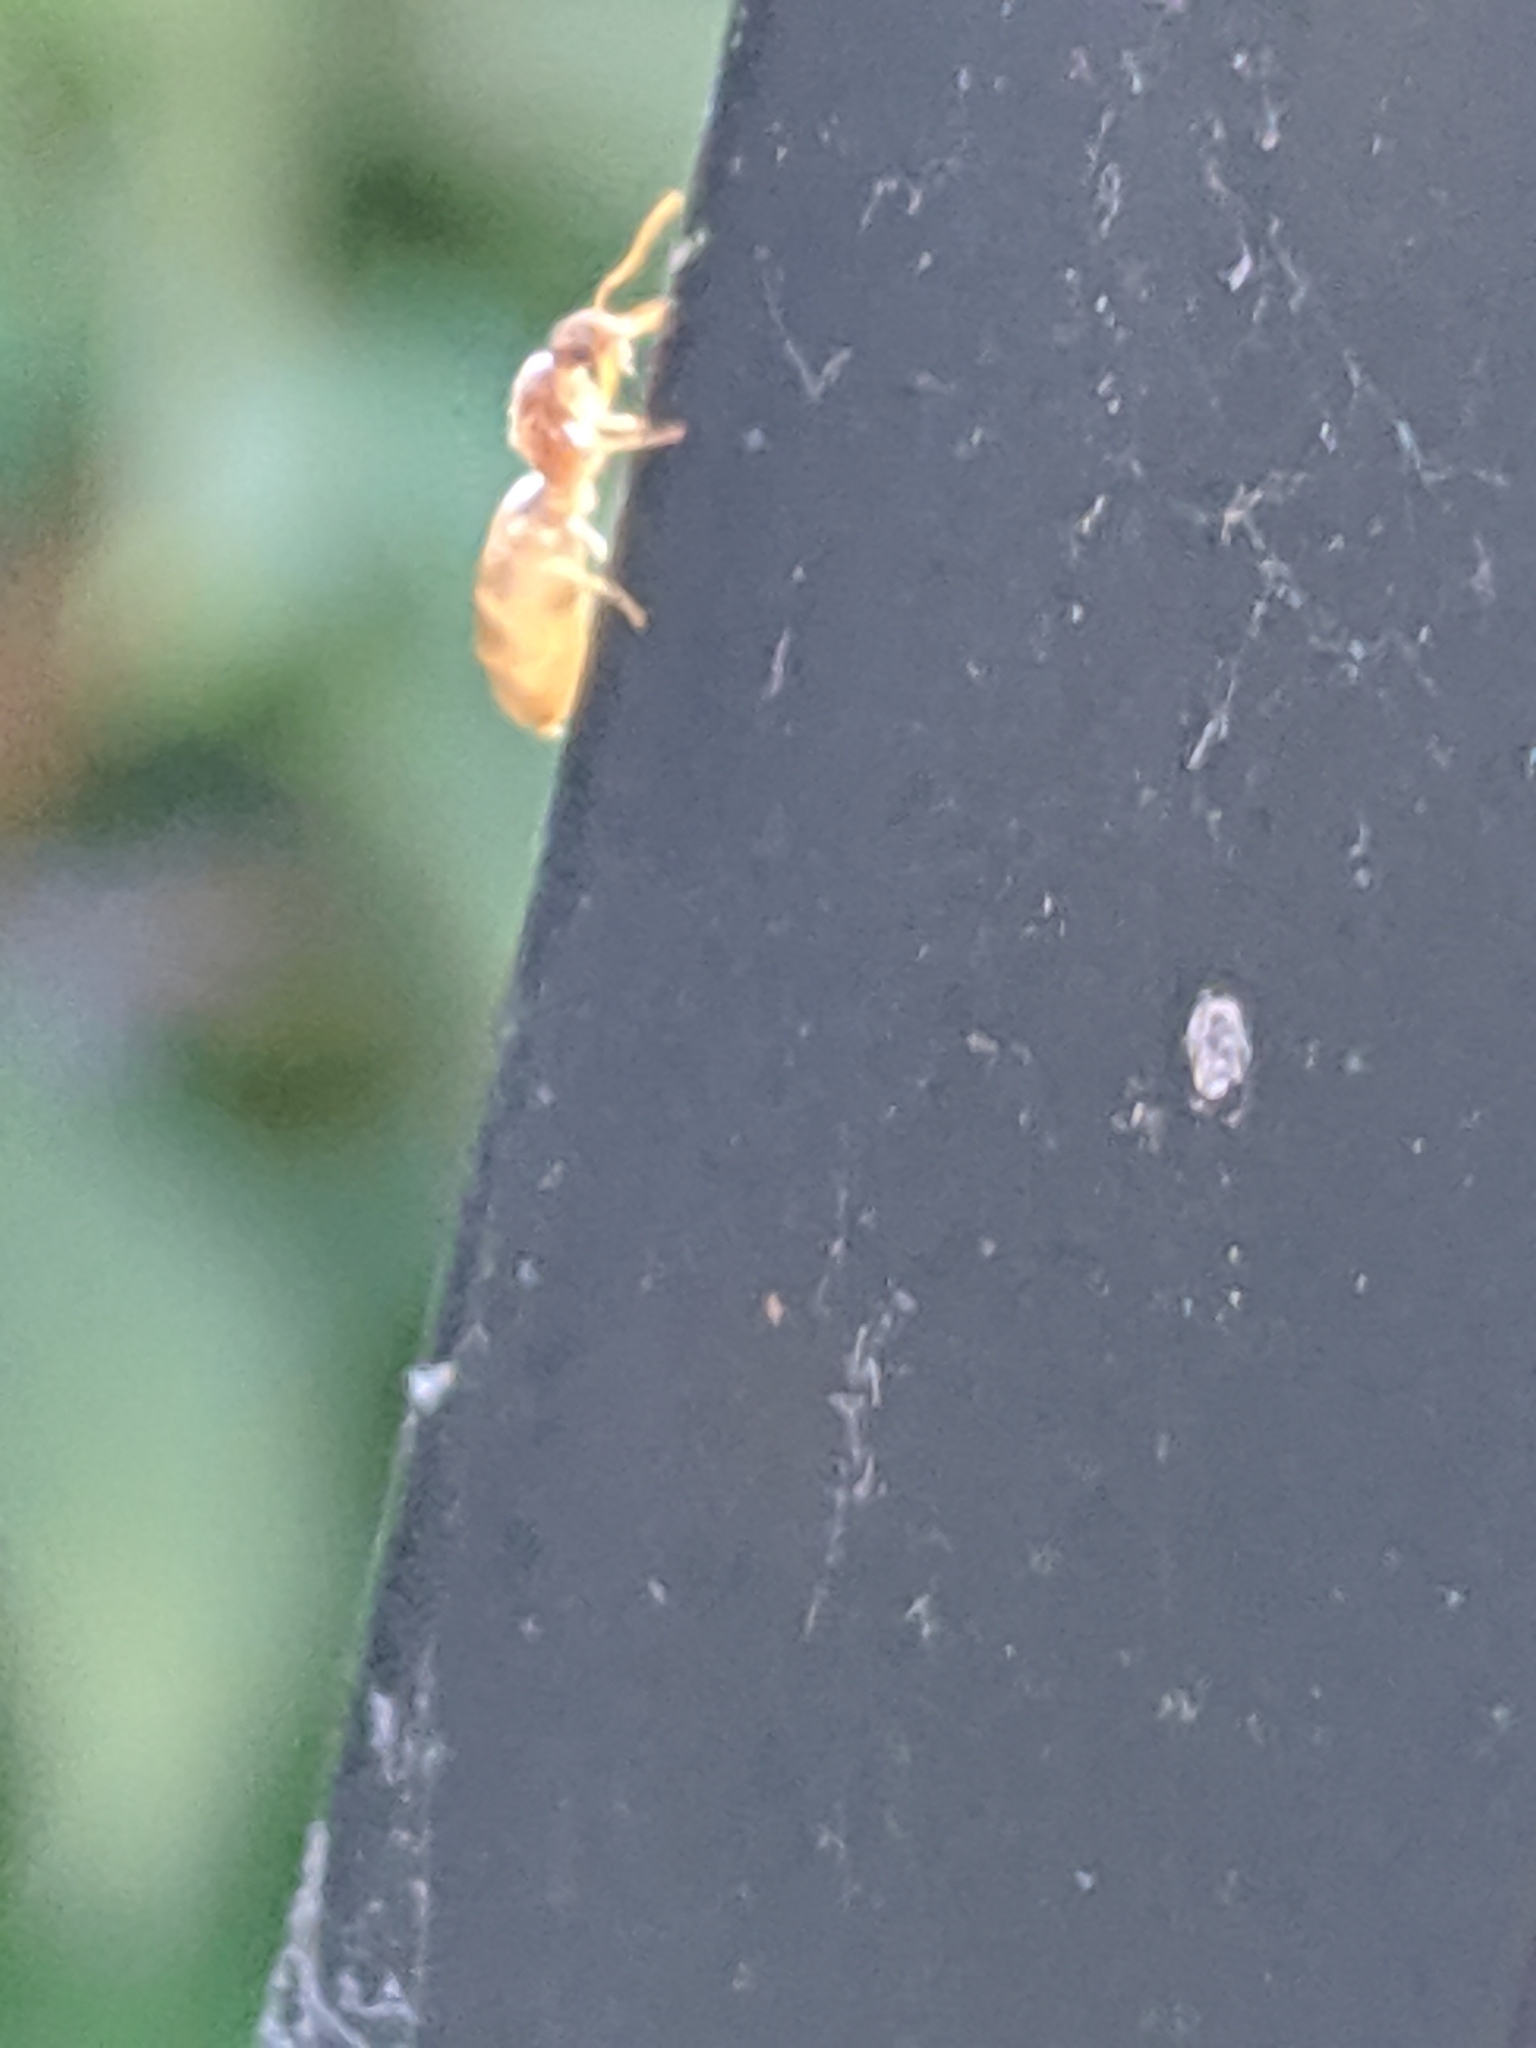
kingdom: Animalia
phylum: Arthropoda
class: Insecta
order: Hymenoptera
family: Formicidae
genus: Brachymyrmex
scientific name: Brachymyrmex depilis
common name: Hairless rover ant
